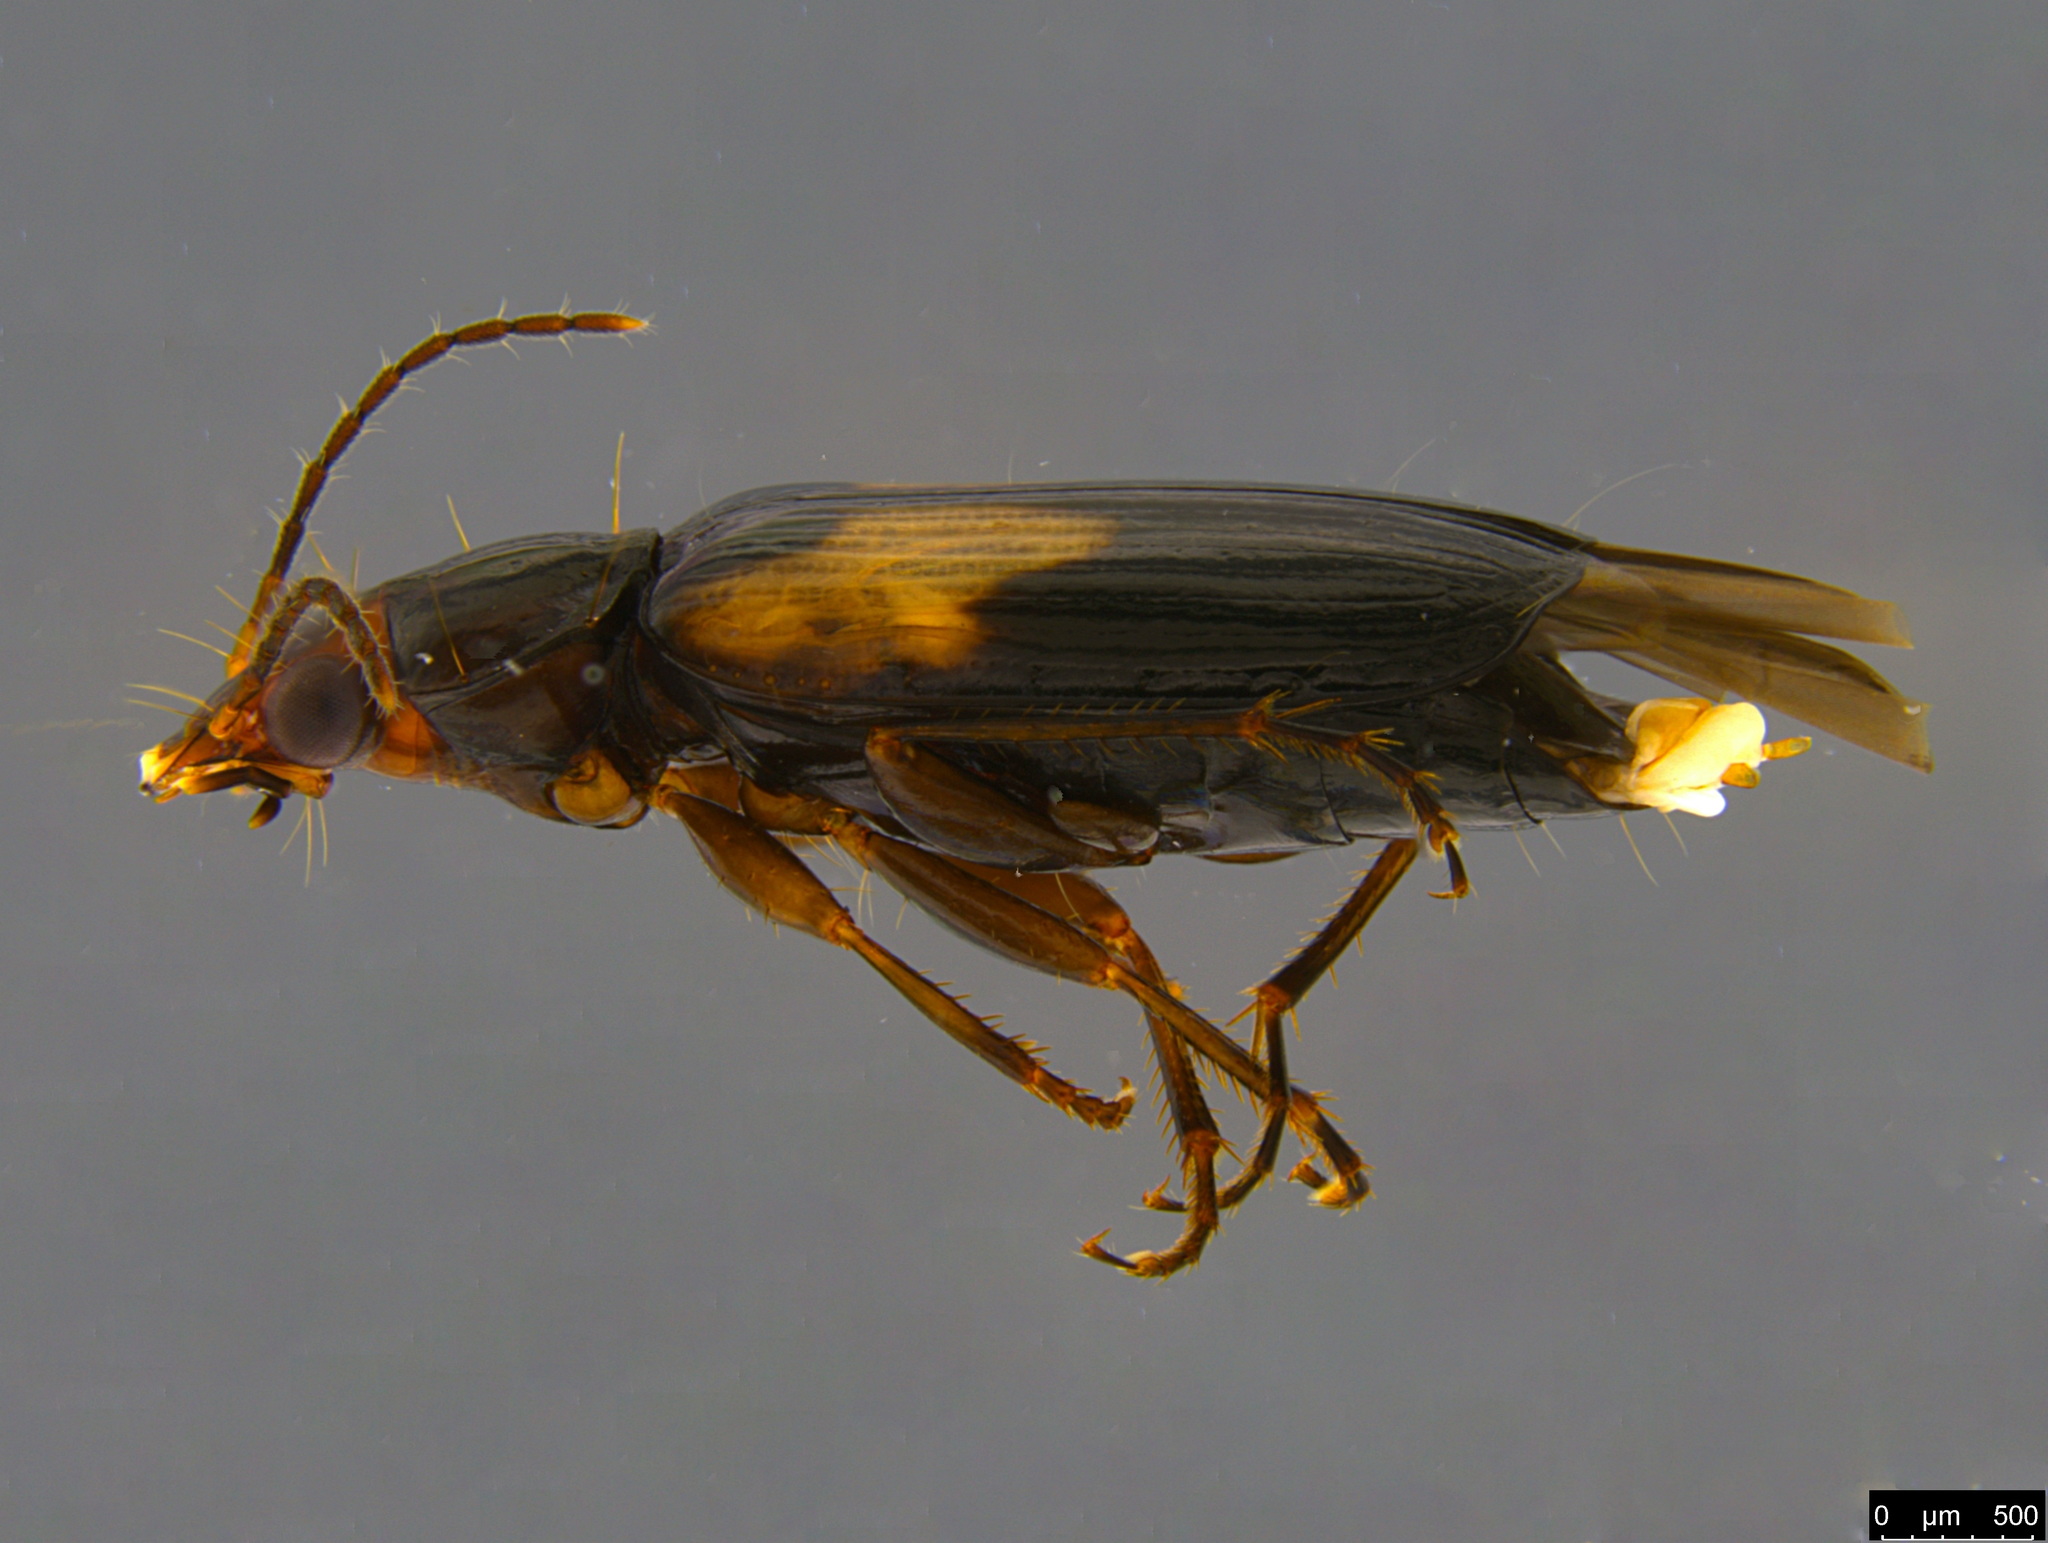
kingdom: Animalia
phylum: Arthropoda
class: Insecta
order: Coleoptera
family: Carabidae
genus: Sarothrocrepis
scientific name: Sarothrocrepis civica
